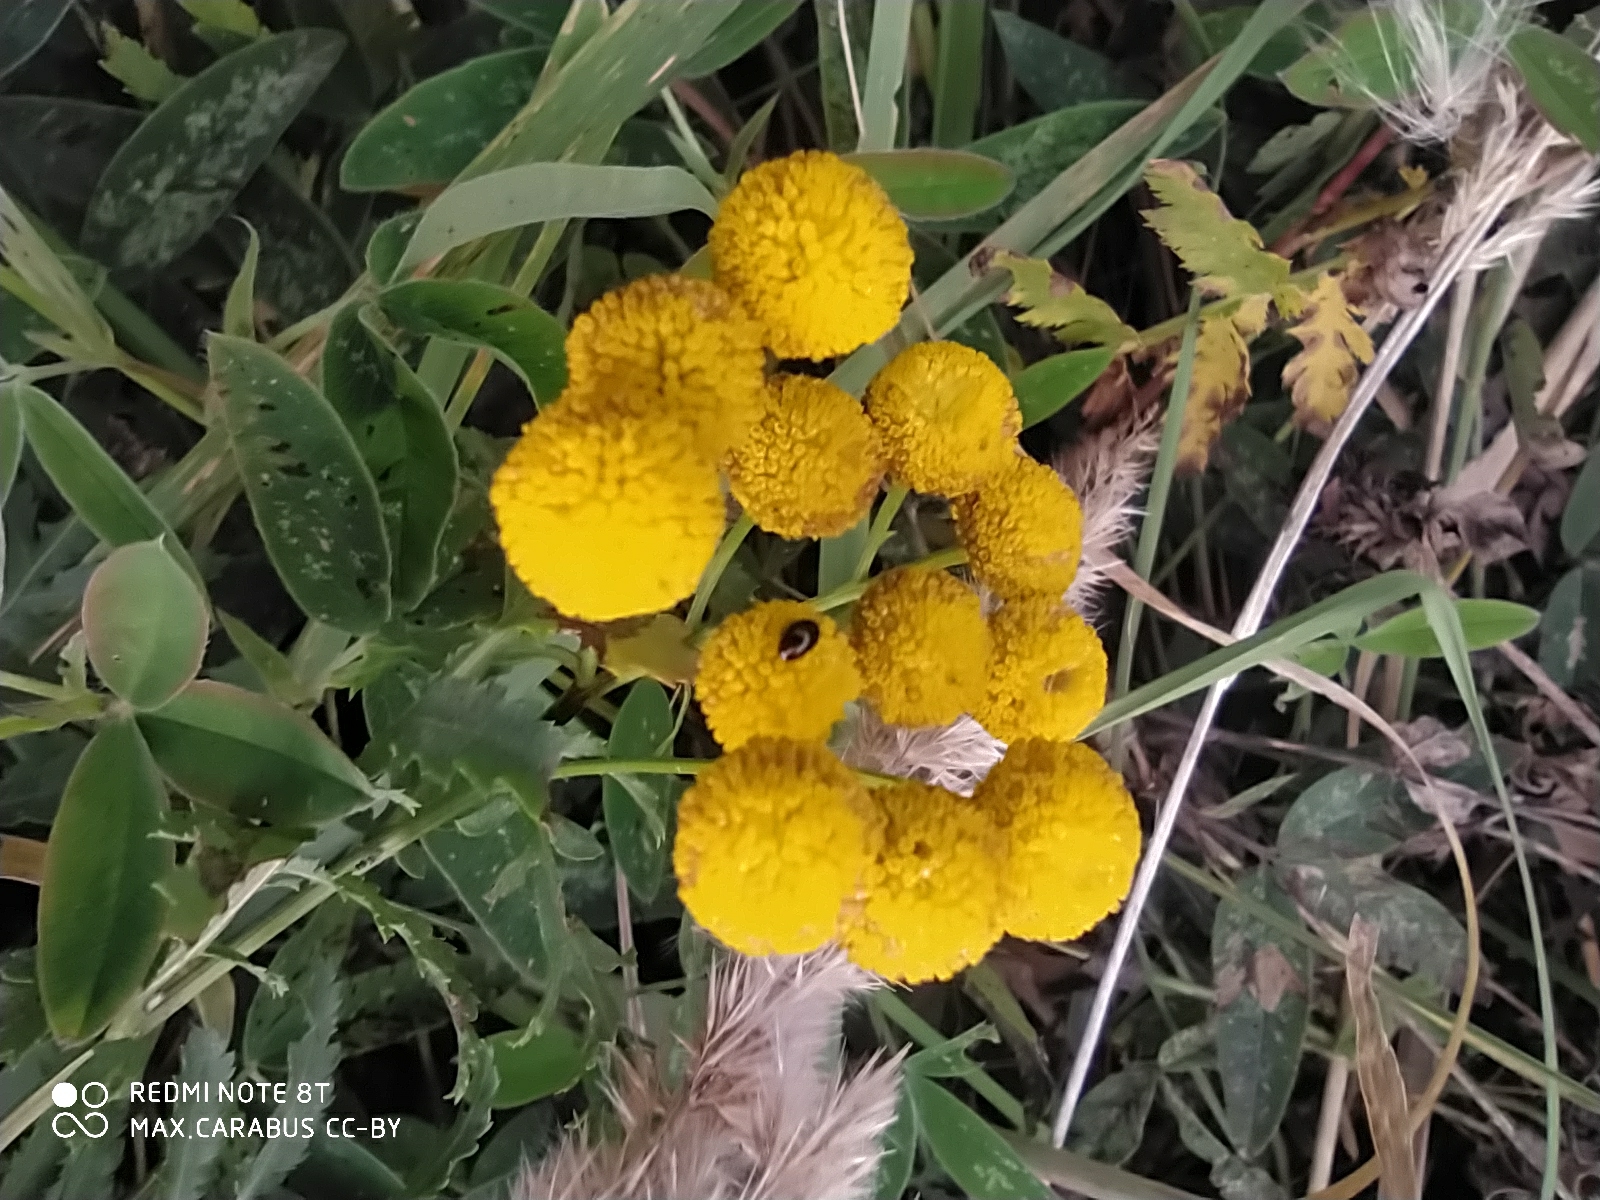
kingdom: Plantae
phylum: Tracheophyta
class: Magnoliopsida
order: Asterales
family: Asteraceae
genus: Tanacetum
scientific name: Tanacetum vulgare
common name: Common tansy
